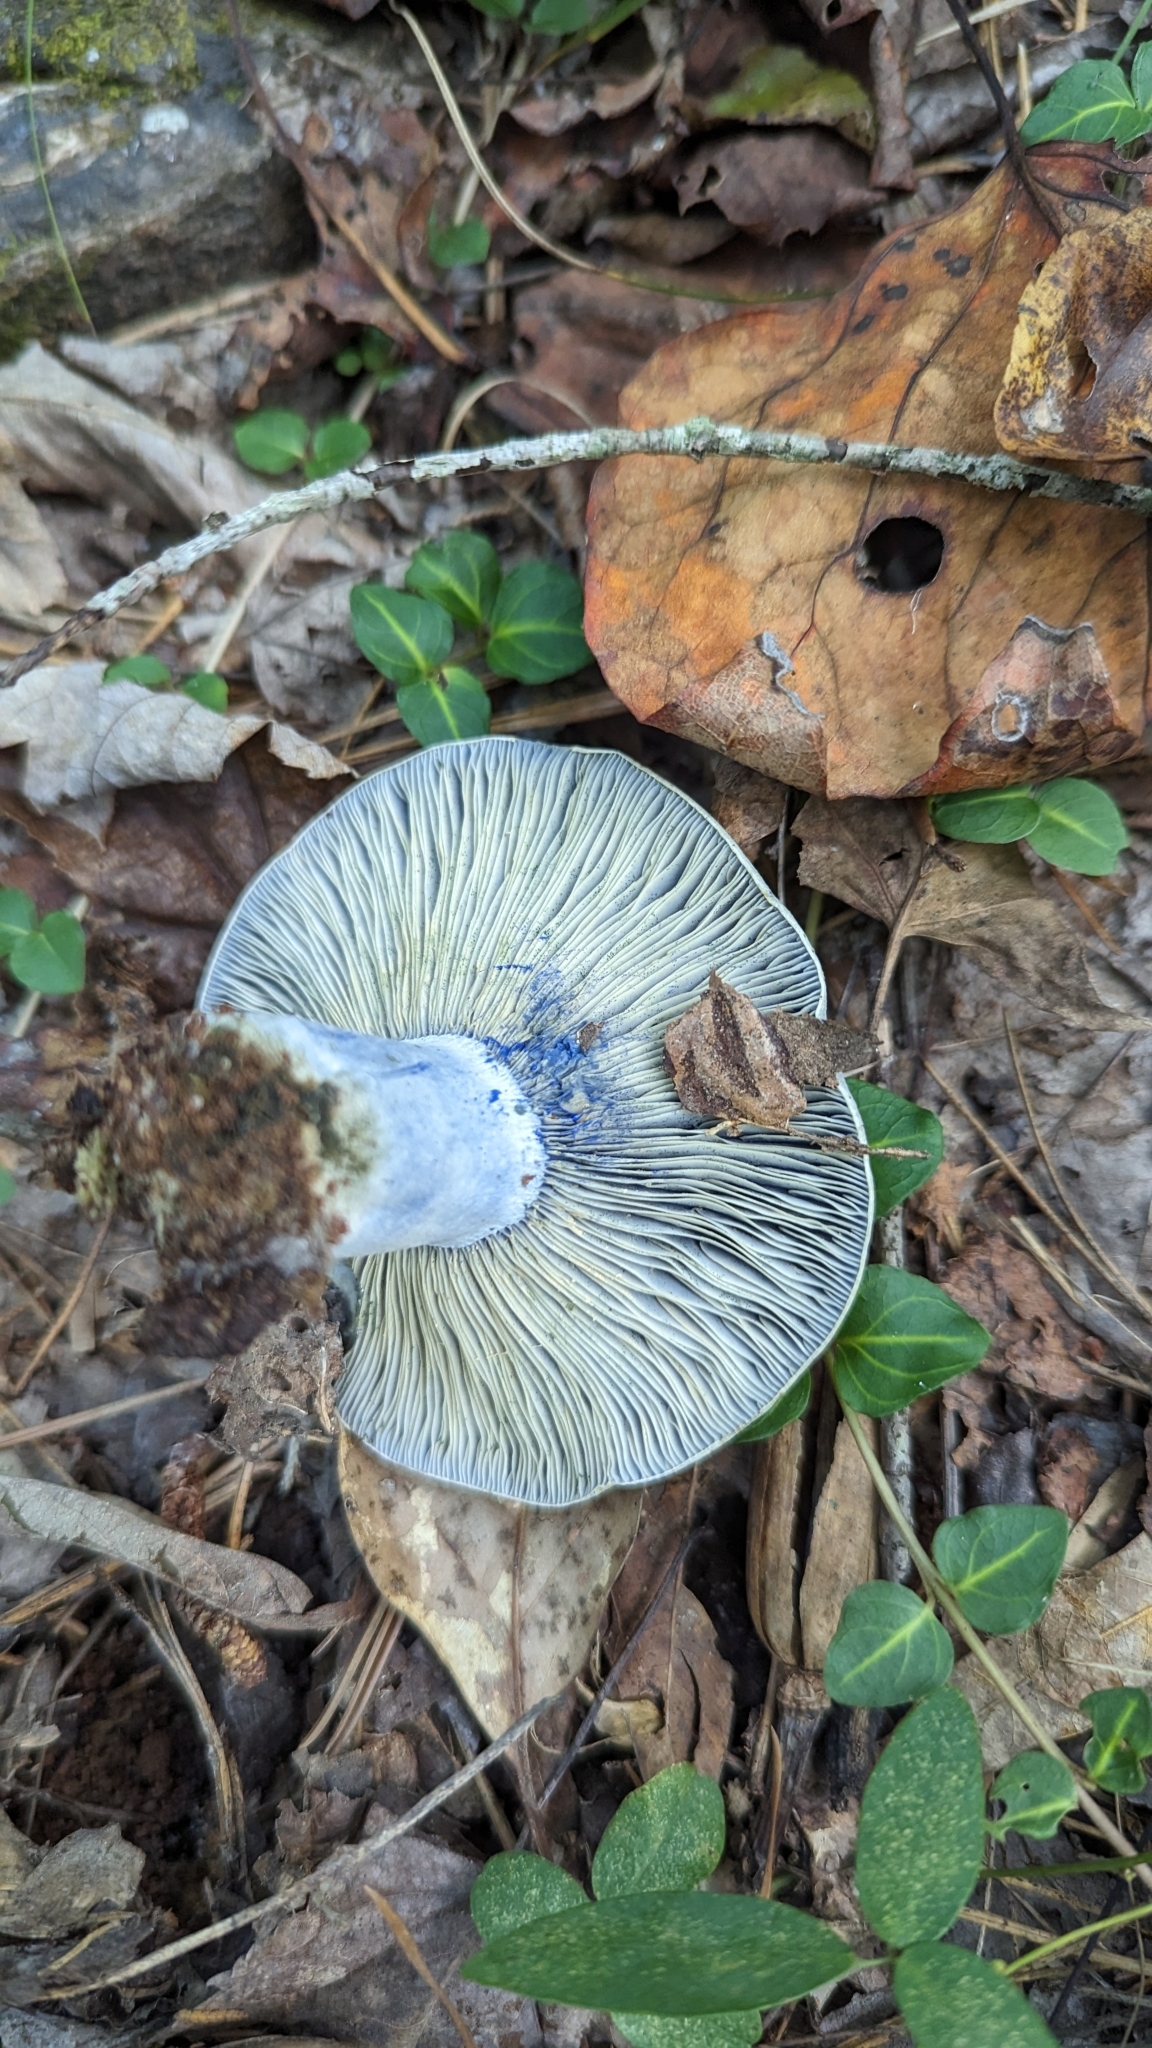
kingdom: Fungi
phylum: Basidiomycota
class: Agaricomycetes
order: Russulales
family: Russulaceae
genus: Lactarius
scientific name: Lactarius indigo
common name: Indigo milk cap
